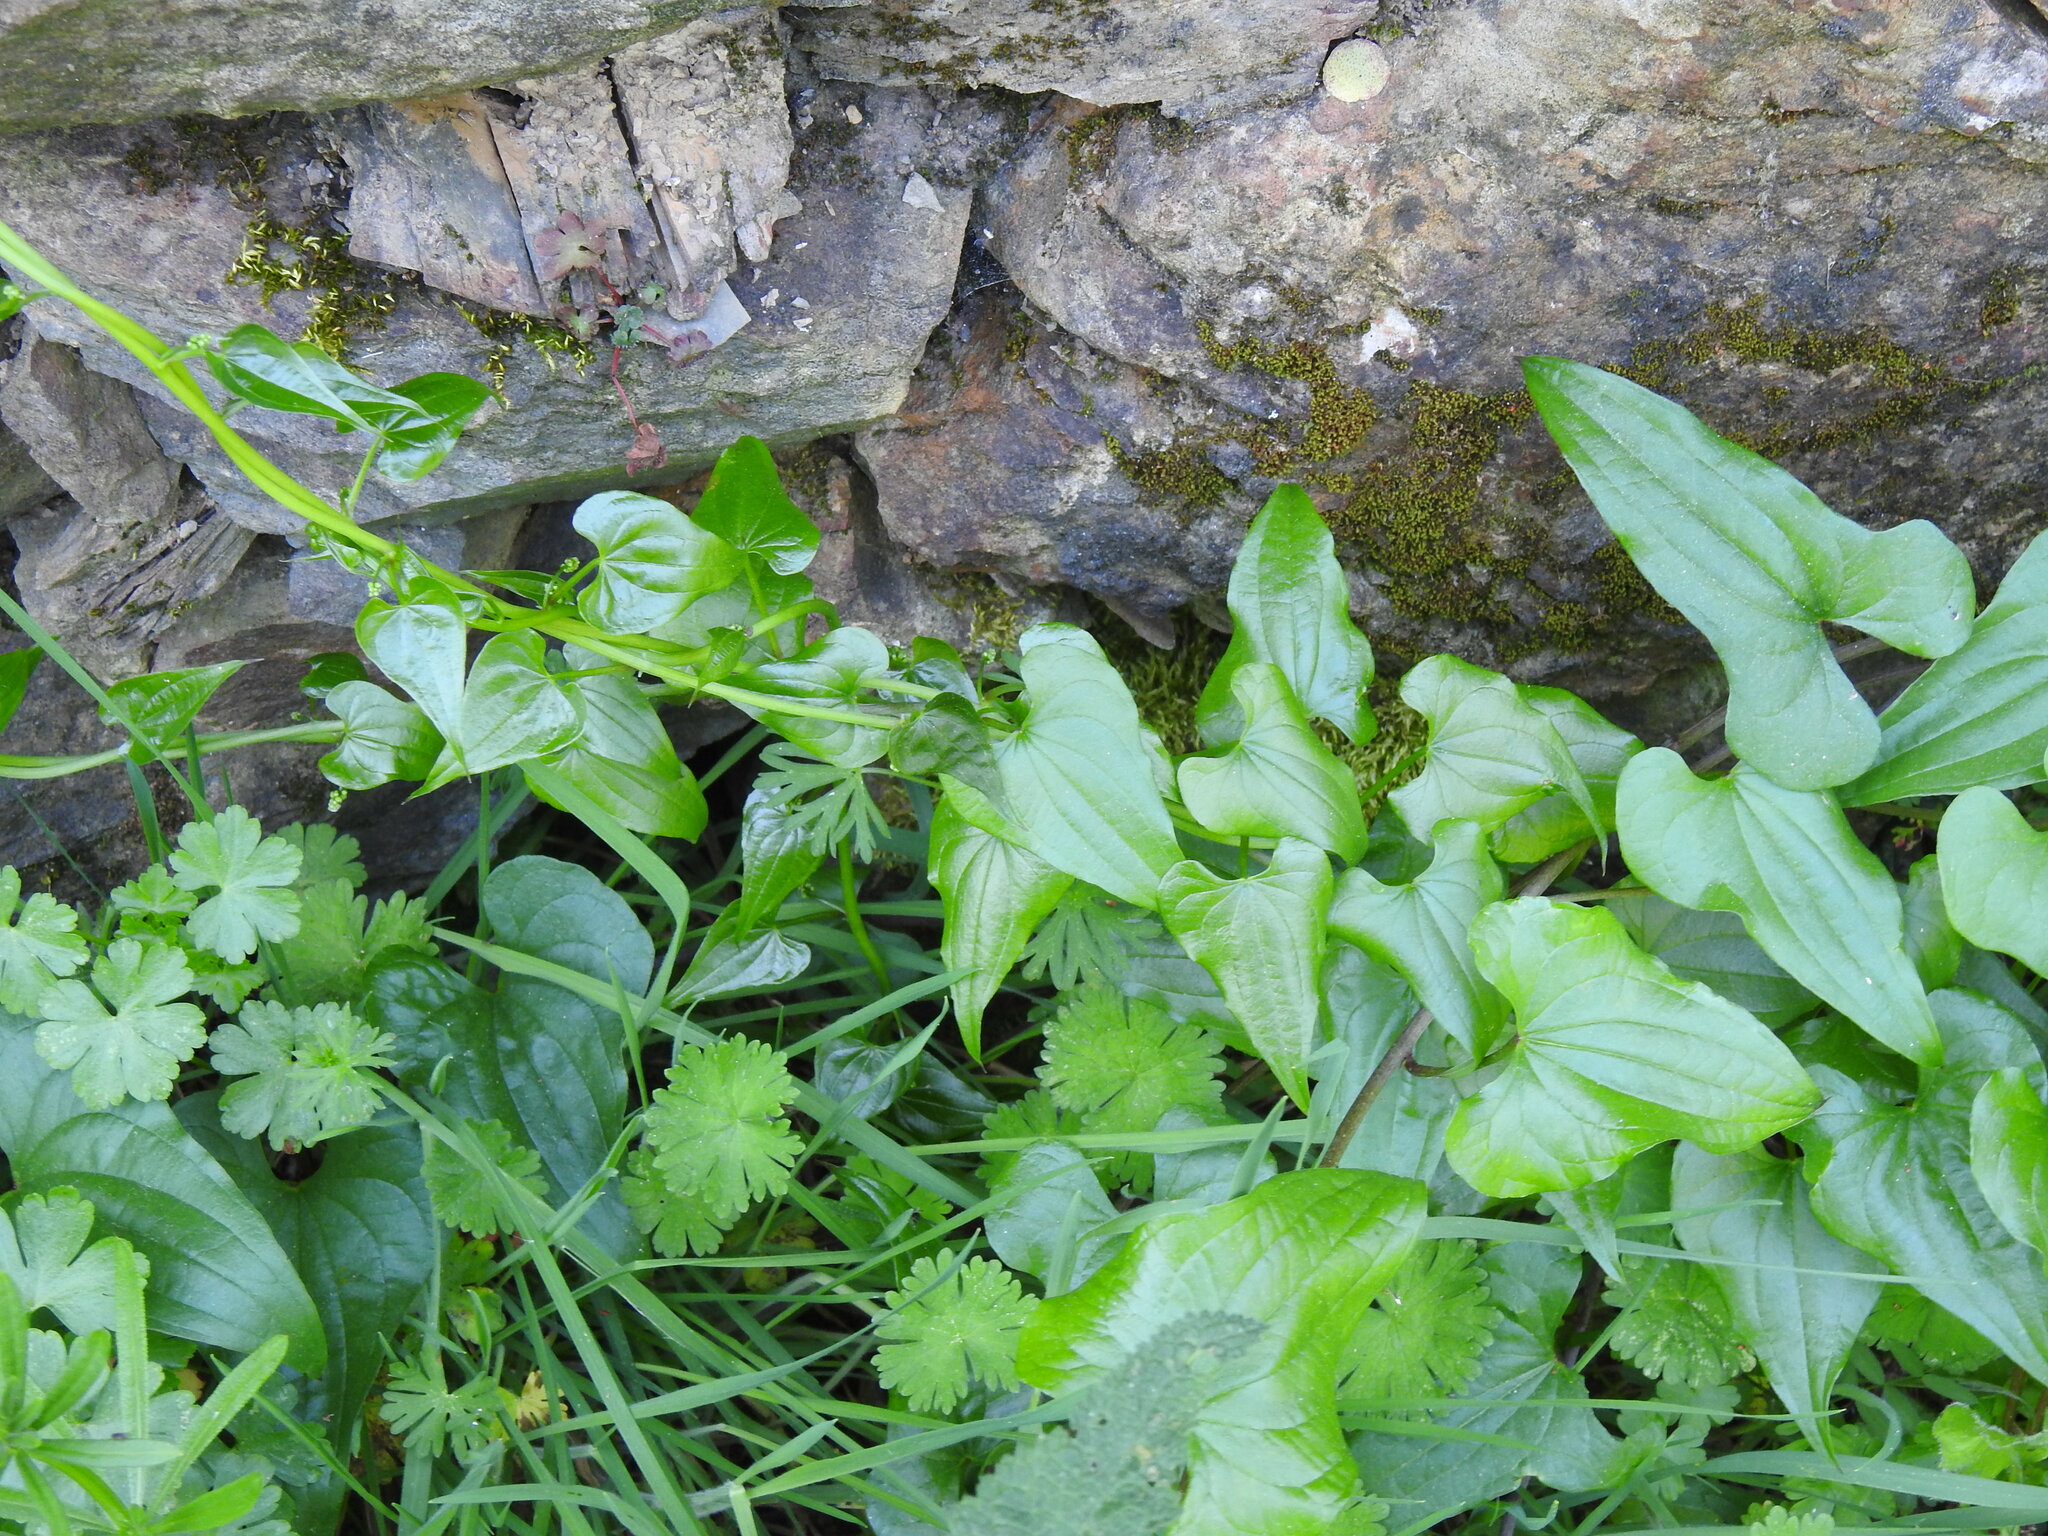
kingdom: Plantae
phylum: Tracheophyta
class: Liliopsida
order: Dioscoreales
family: Dioscoreaceae
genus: Dioscorea
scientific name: Dioscorea communis
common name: Black-bindweed
